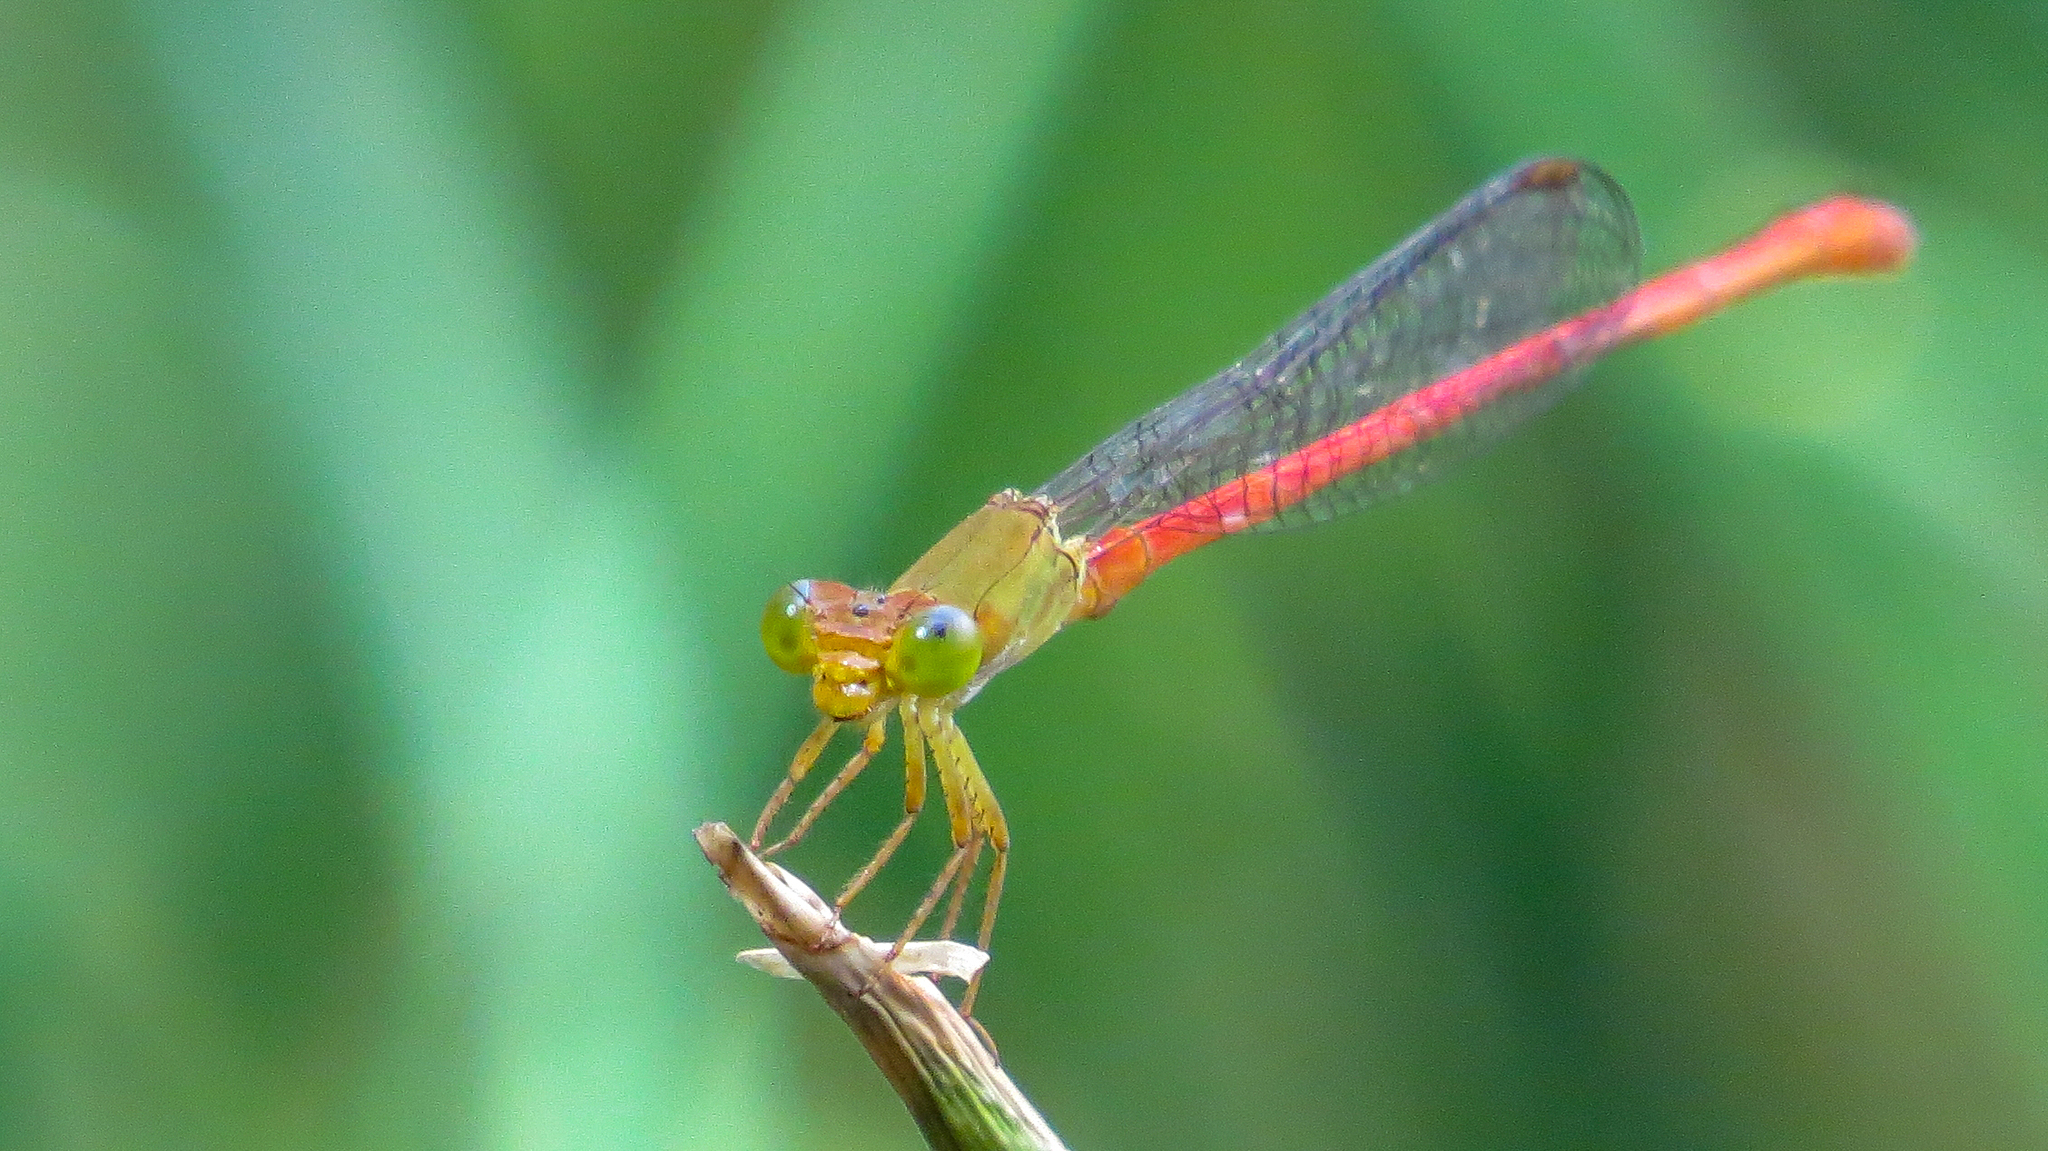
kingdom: Animalia
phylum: Arthropoda
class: Insecta
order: Odonata
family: Coenagrionidae
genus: Ceriagrion
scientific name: Ceriagrion aeruginosum
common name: Redtail
